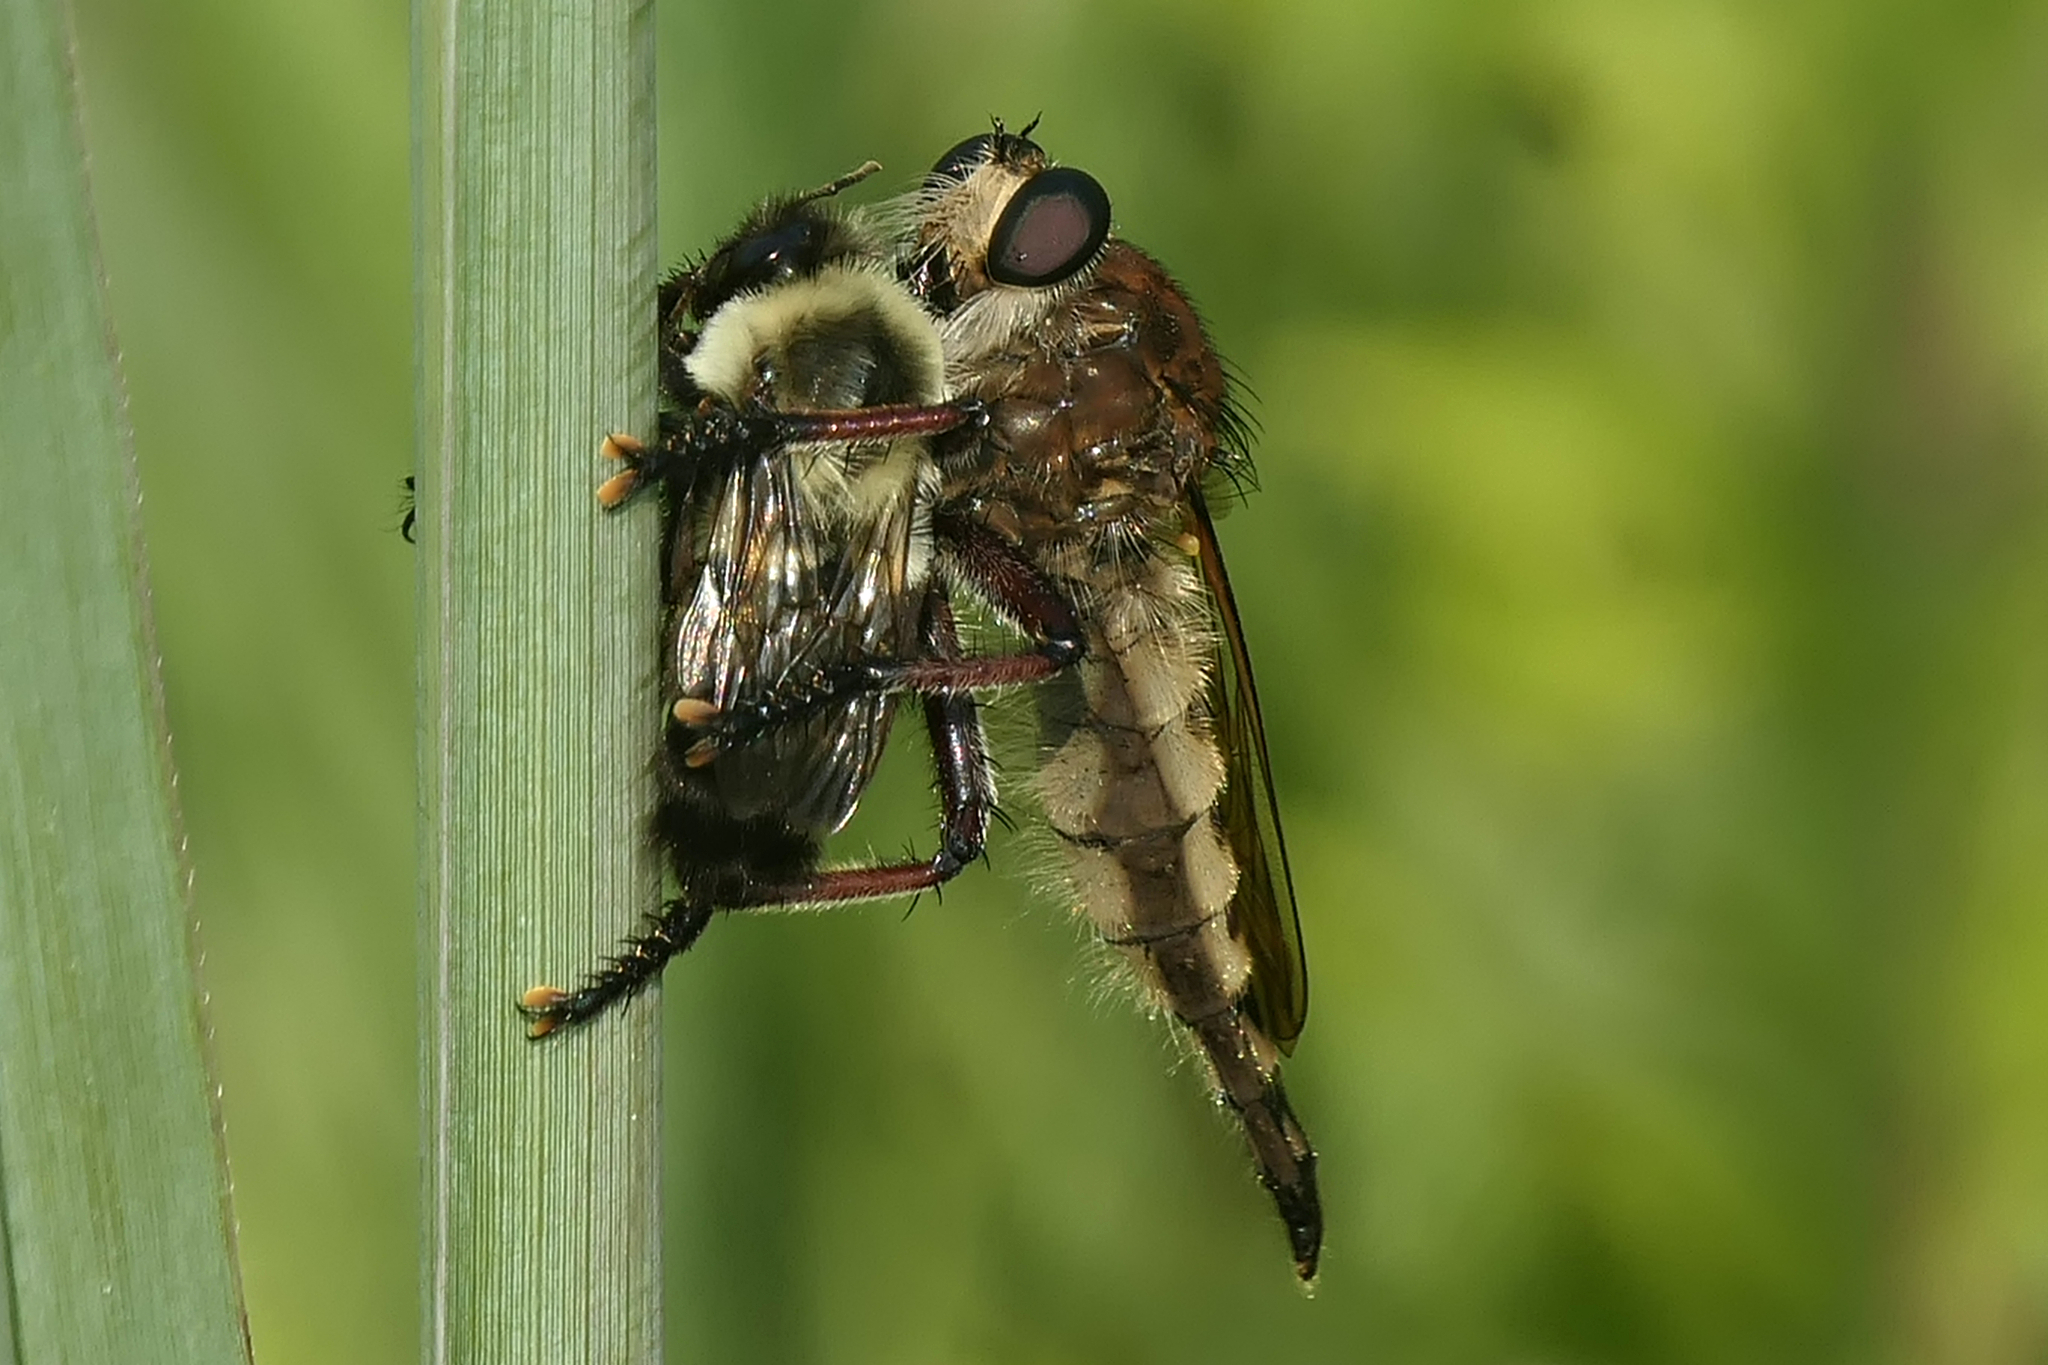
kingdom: Animalia
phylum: Arthropoda
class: Insecta
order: Diptera
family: Asilidae
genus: Promachus
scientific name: Promachus hinei
